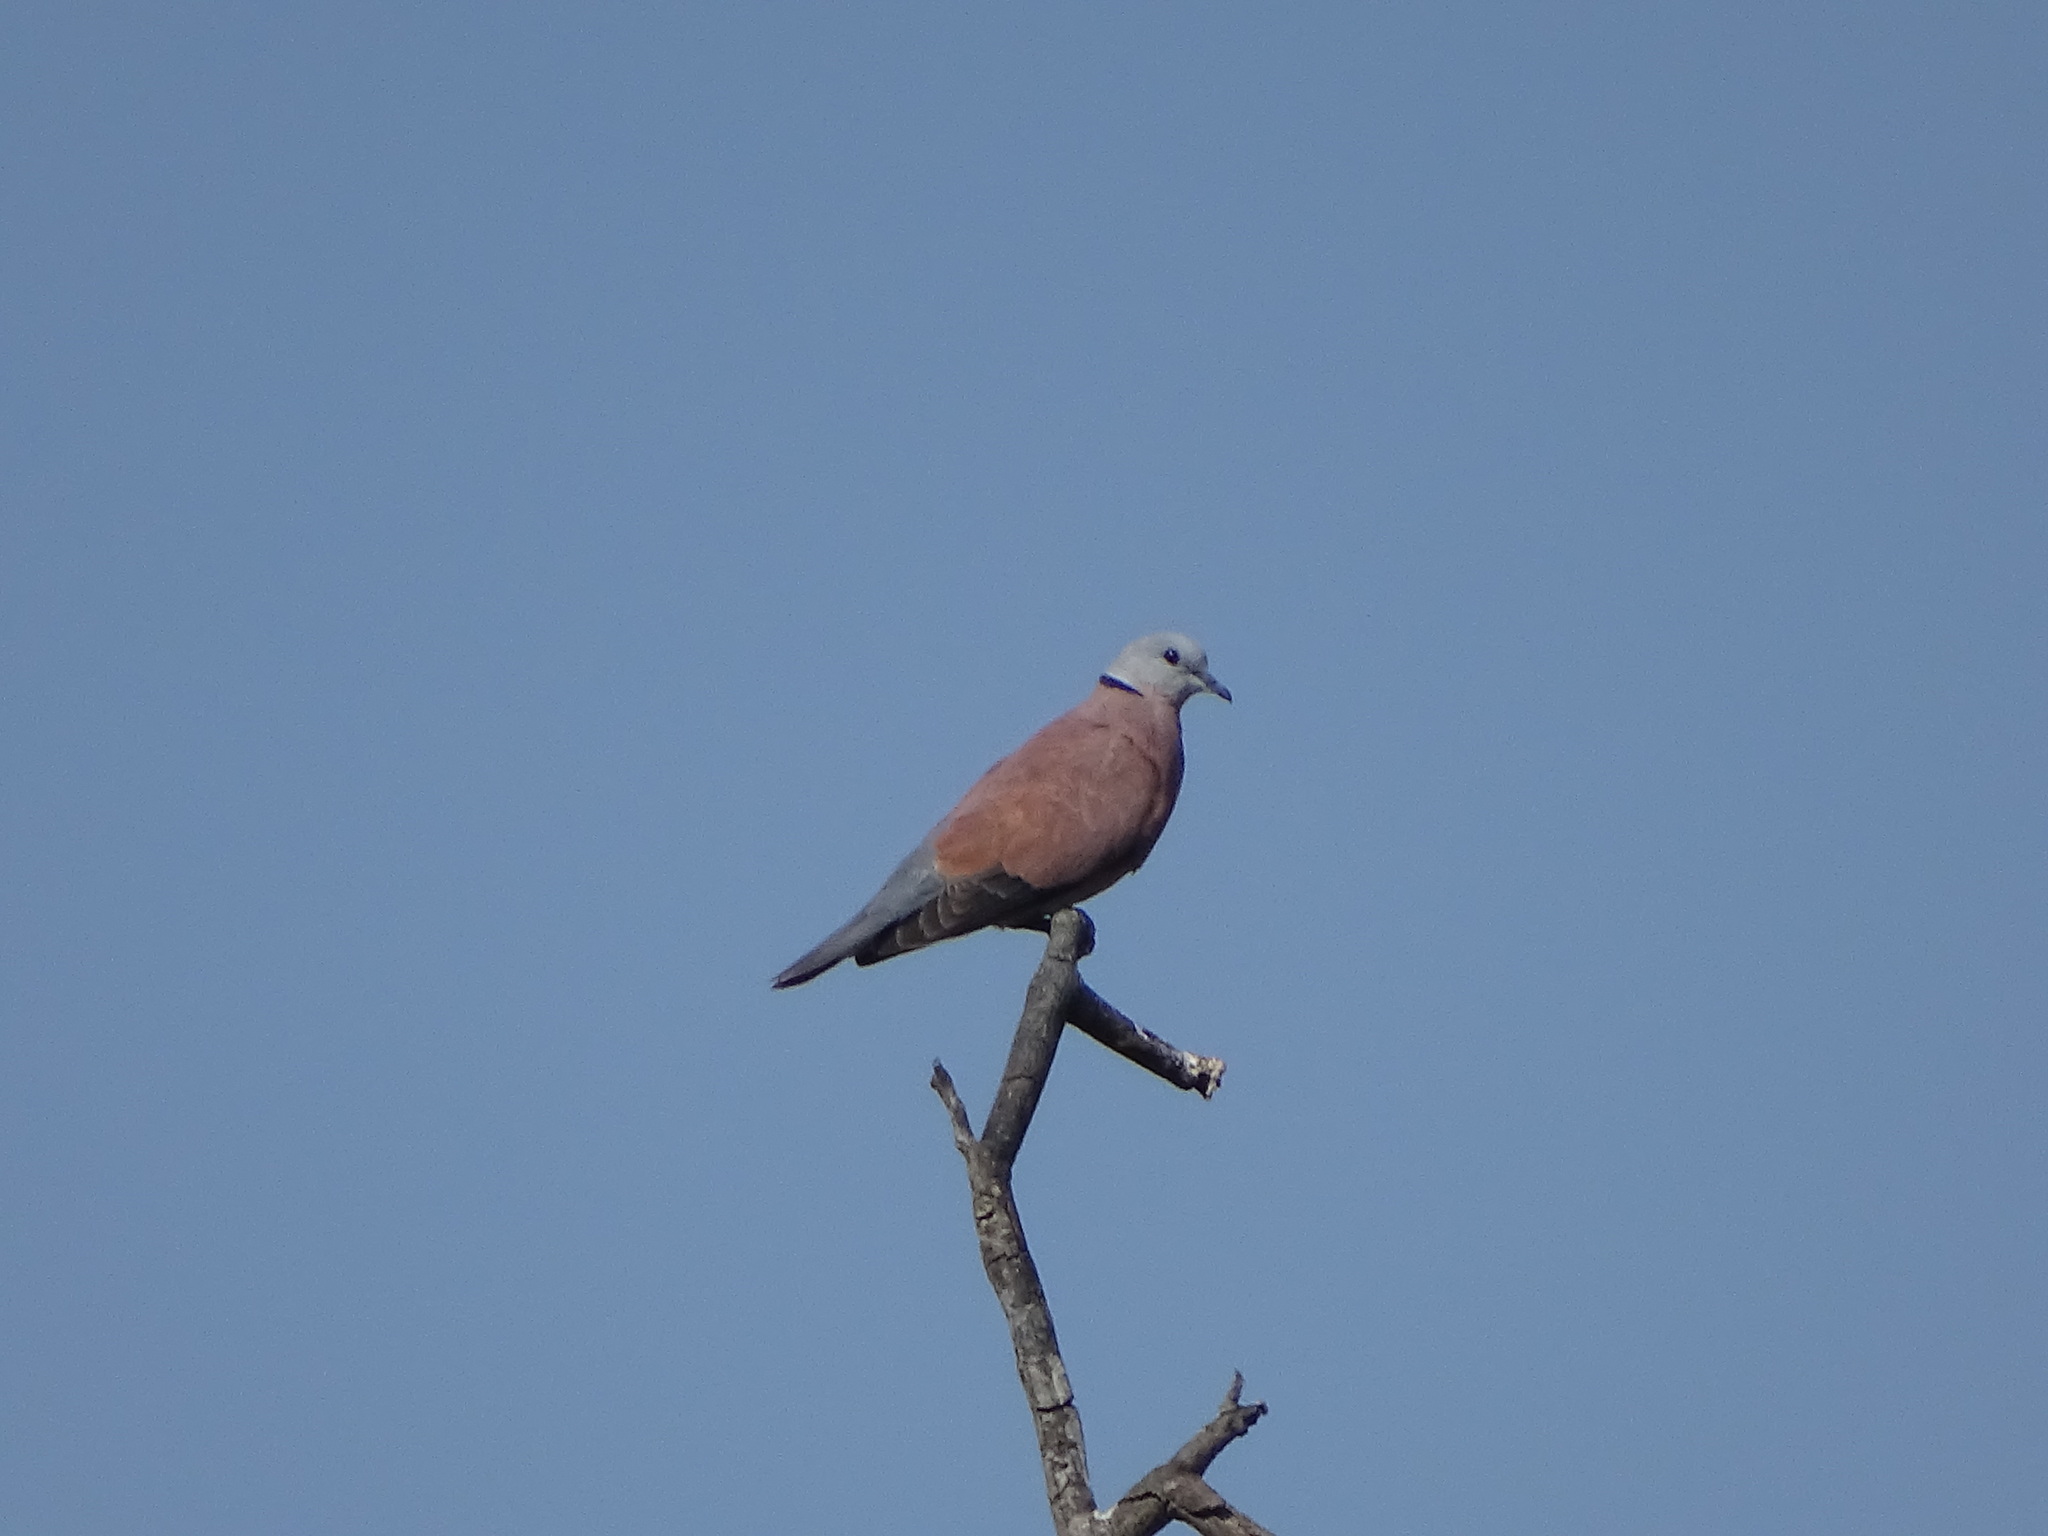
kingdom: Animalia
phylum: Chordata
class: Aves
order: Columbiformes
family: Columbidae
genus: Streptopelia
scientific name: Streptopelia tranquebarica
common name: Red turtle dove
